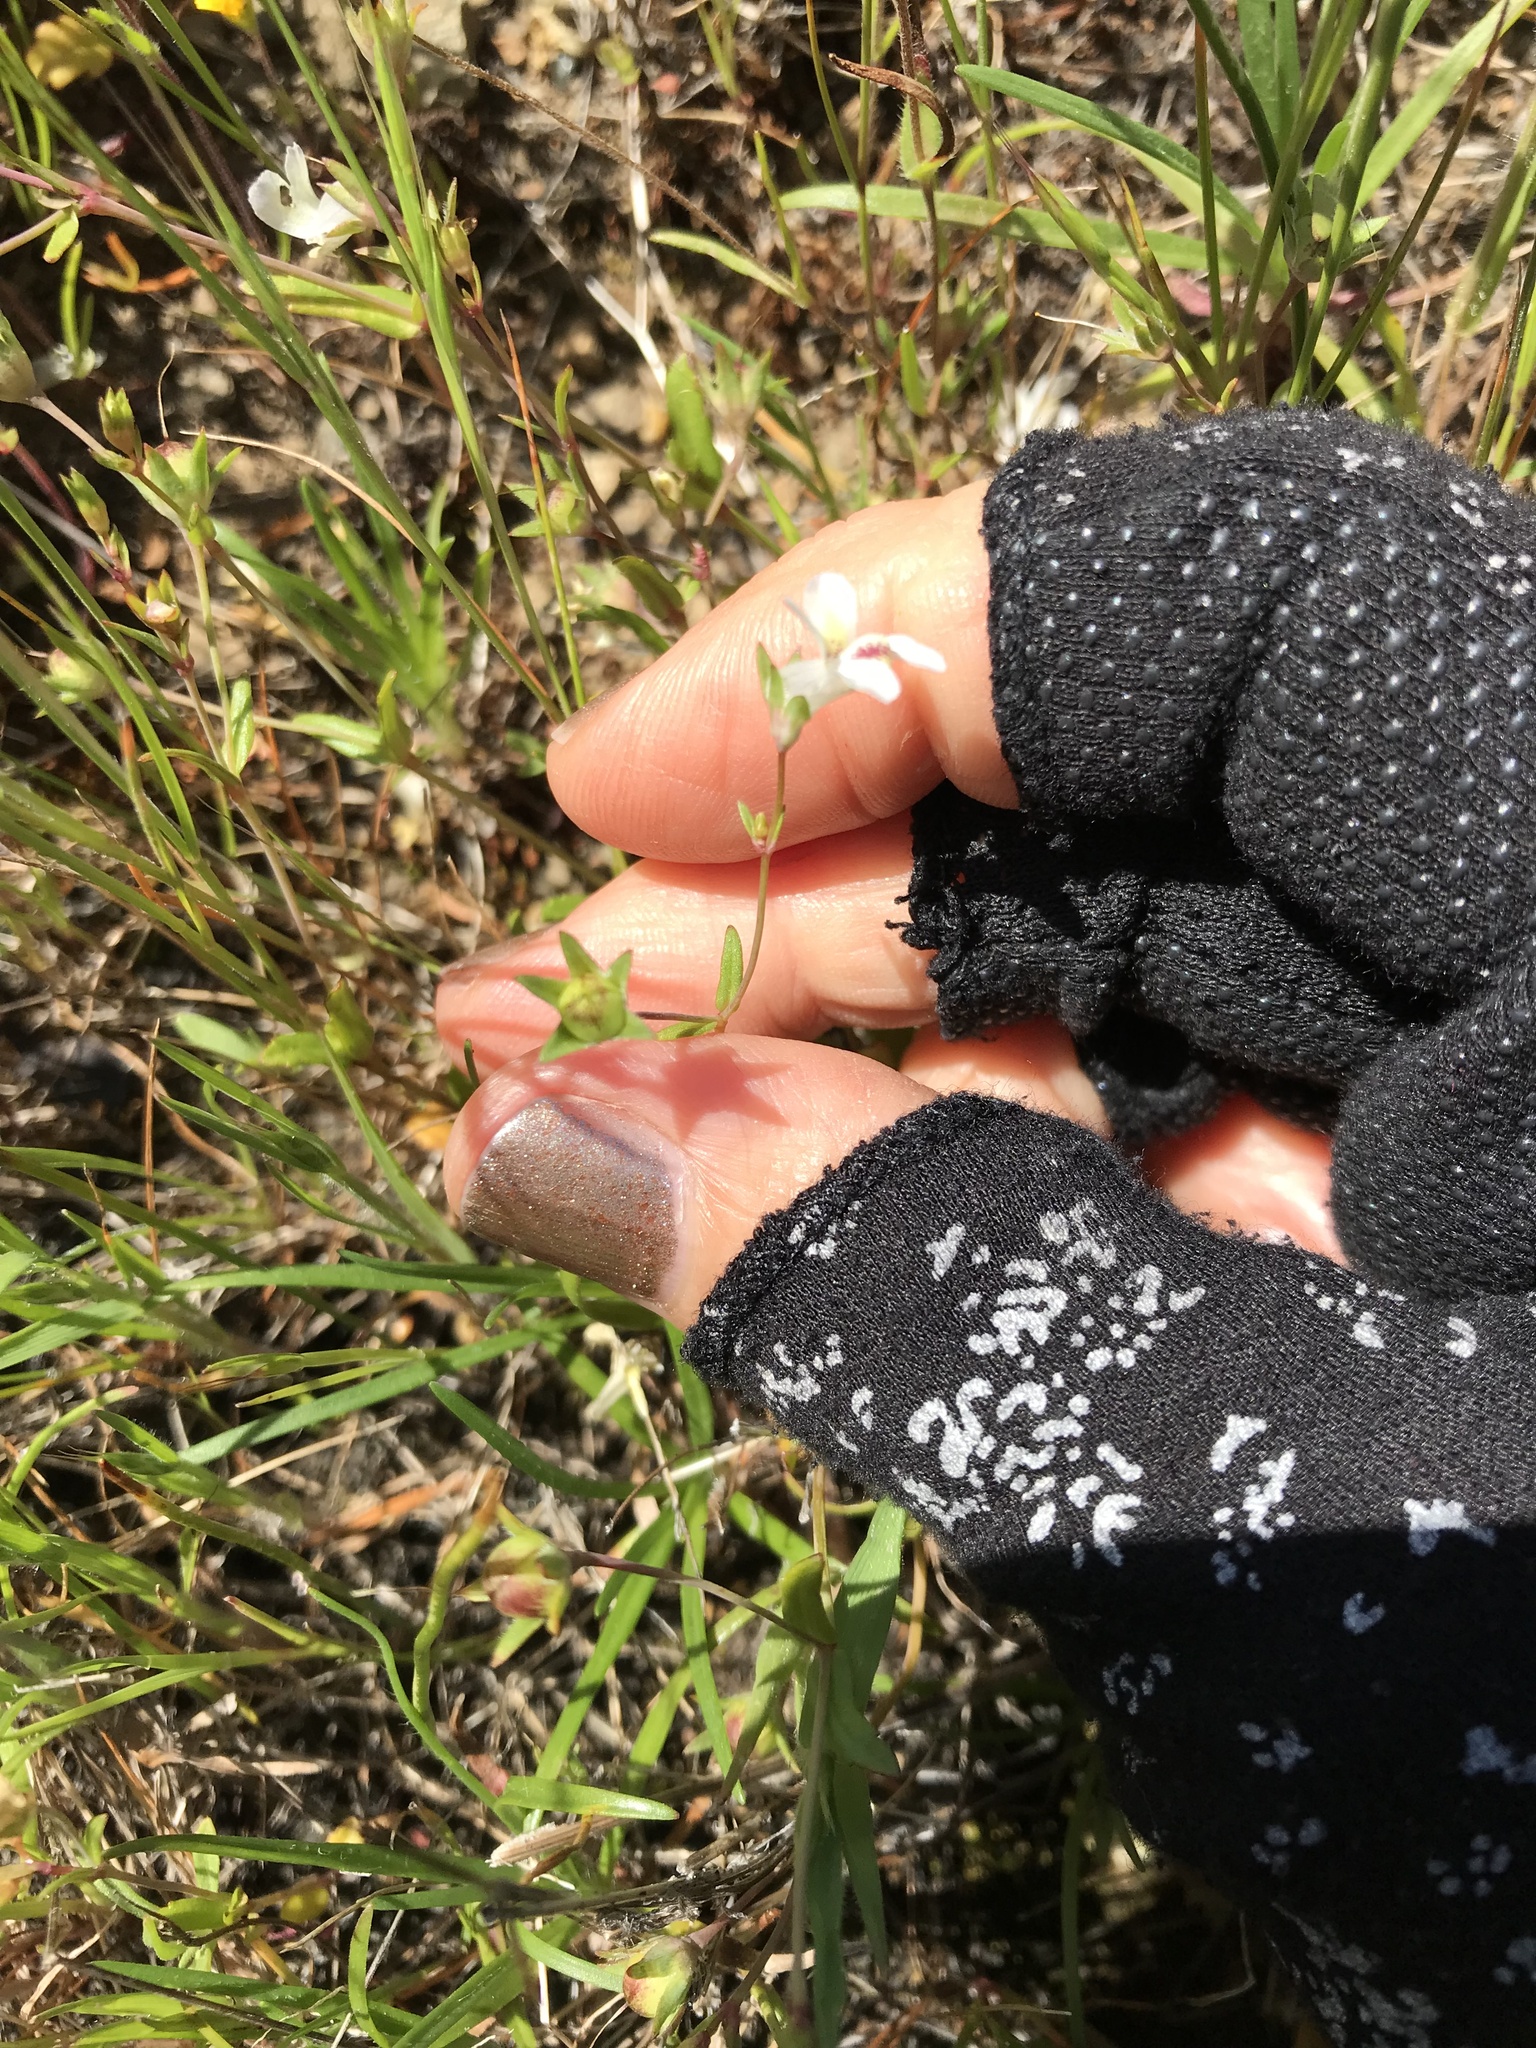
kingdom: Plantae
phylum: Tracheophyta
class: Magnoliopsida
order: Lamiales
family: Plantaginaceae
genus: Collinsia
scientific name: Collinsia sparsiflora
